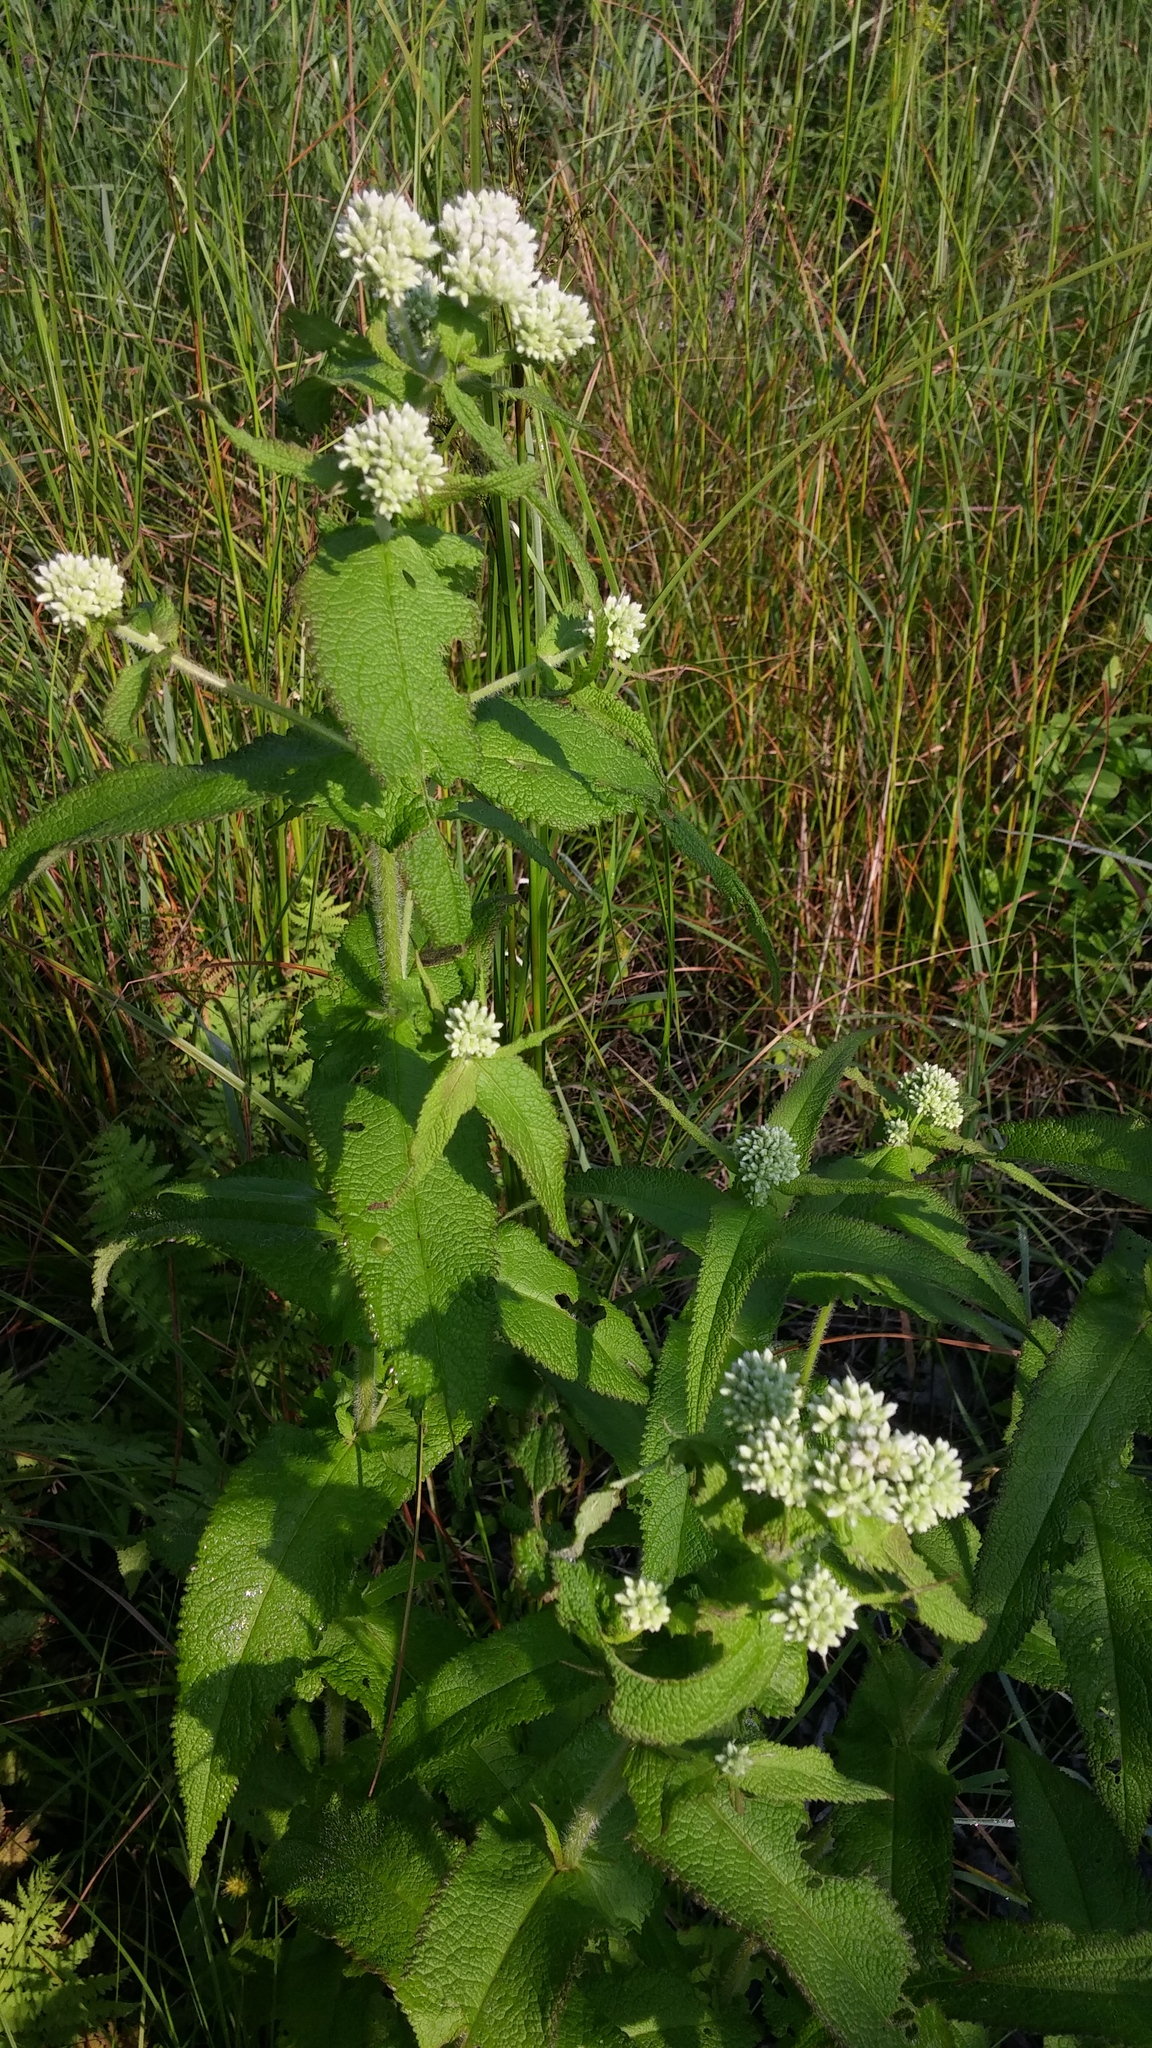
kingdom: Plantae
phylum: Tracheophyta
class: Magnoliopsida
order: Asterales
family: Asteraceae
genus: Eupatorium
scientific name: Eupatorium perfoliatum
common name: Boneset
